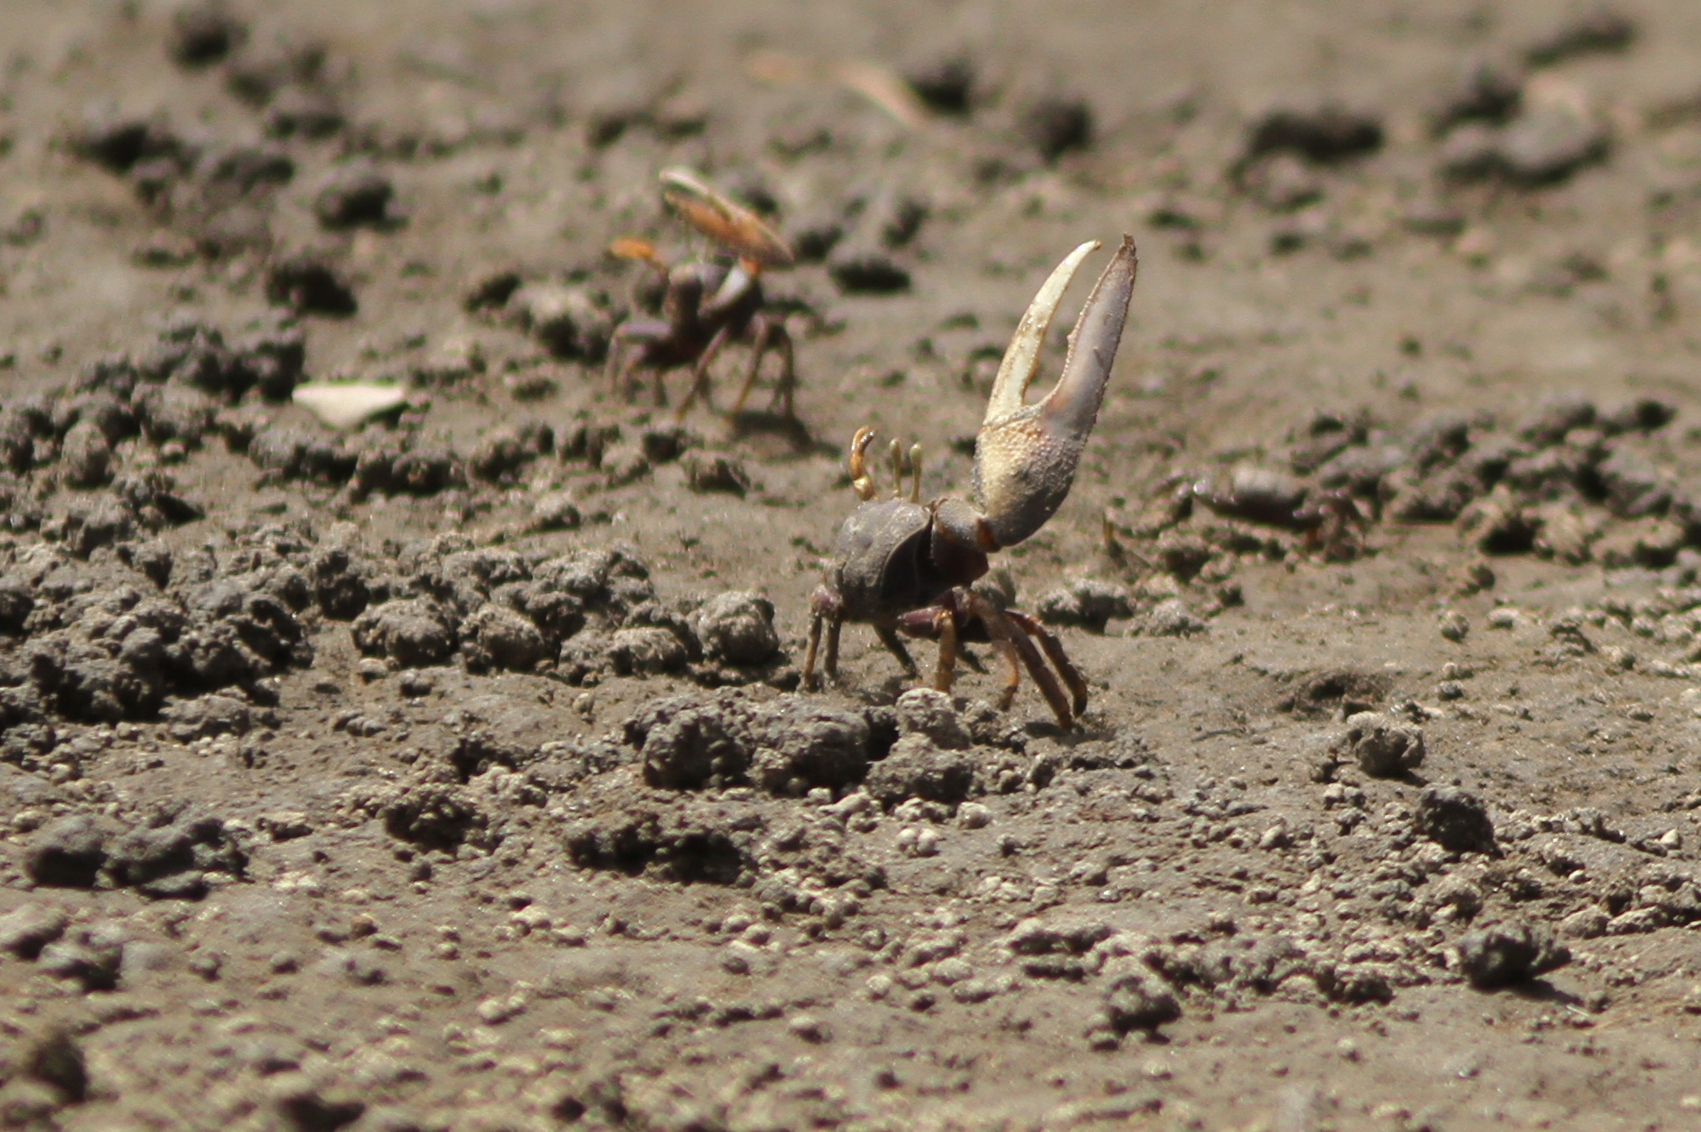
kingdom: Animalia
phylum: Arthropoda
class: Malacostraca
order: Decapoda
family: Ocypodidae
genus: Afruca
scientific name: Afruca tangeri
